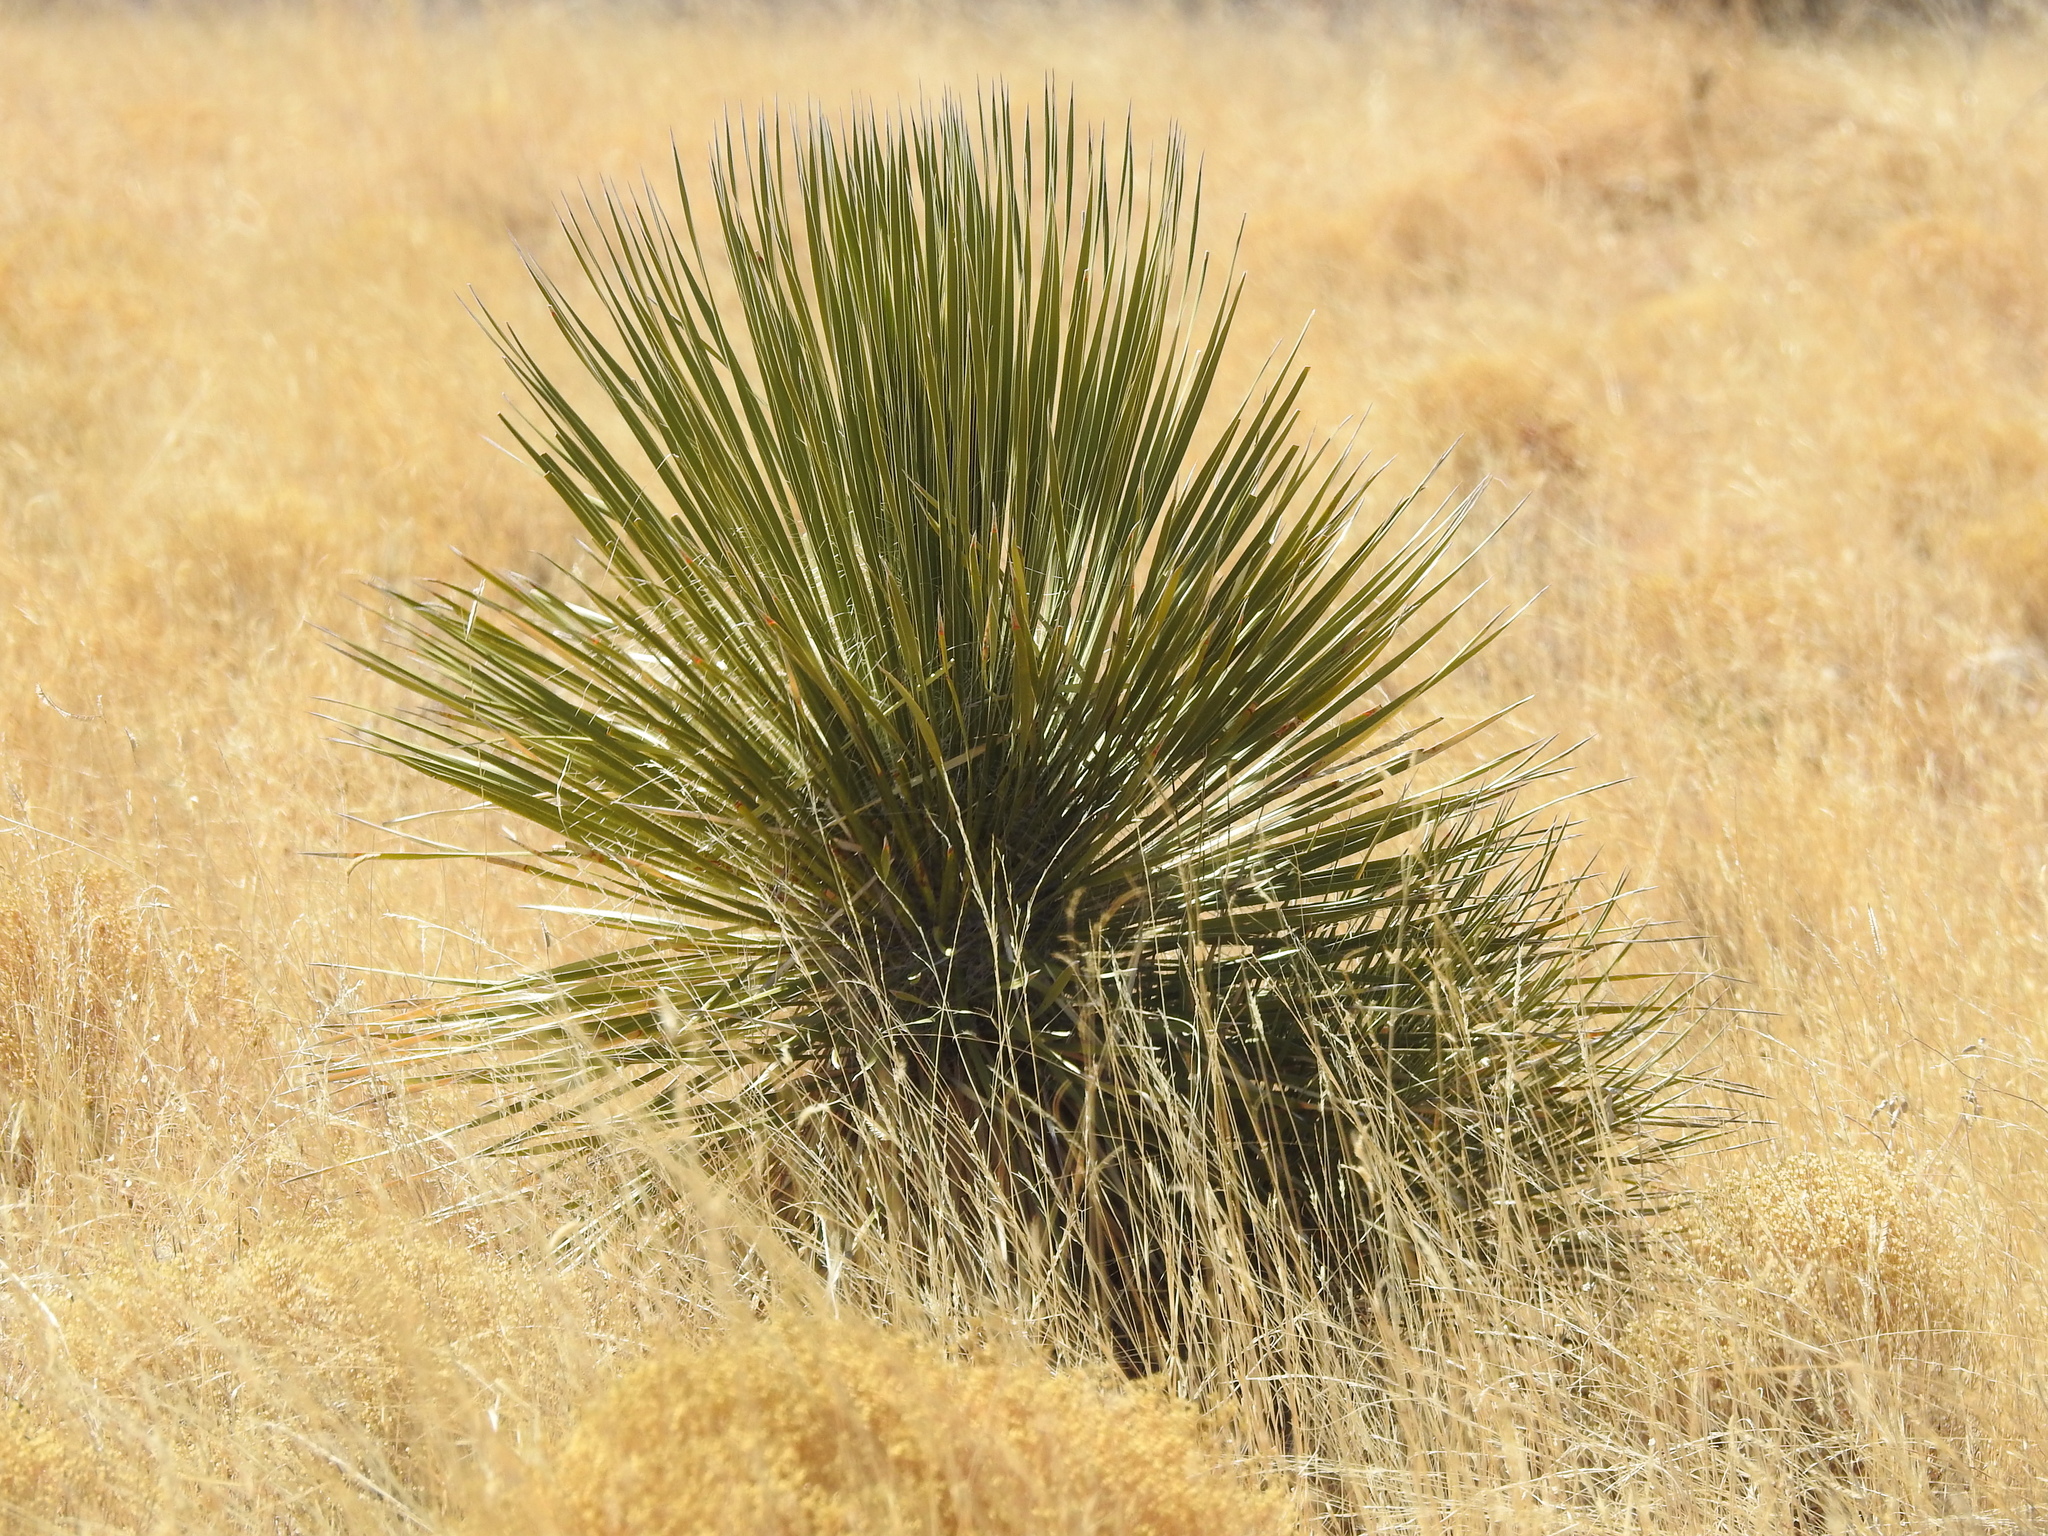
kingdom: Plantae
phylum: Tracheophyta
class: Liliopsida
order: Asparagales
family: Asparagaceae
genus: Yucca
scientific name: Yucca elata
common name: Palmella
